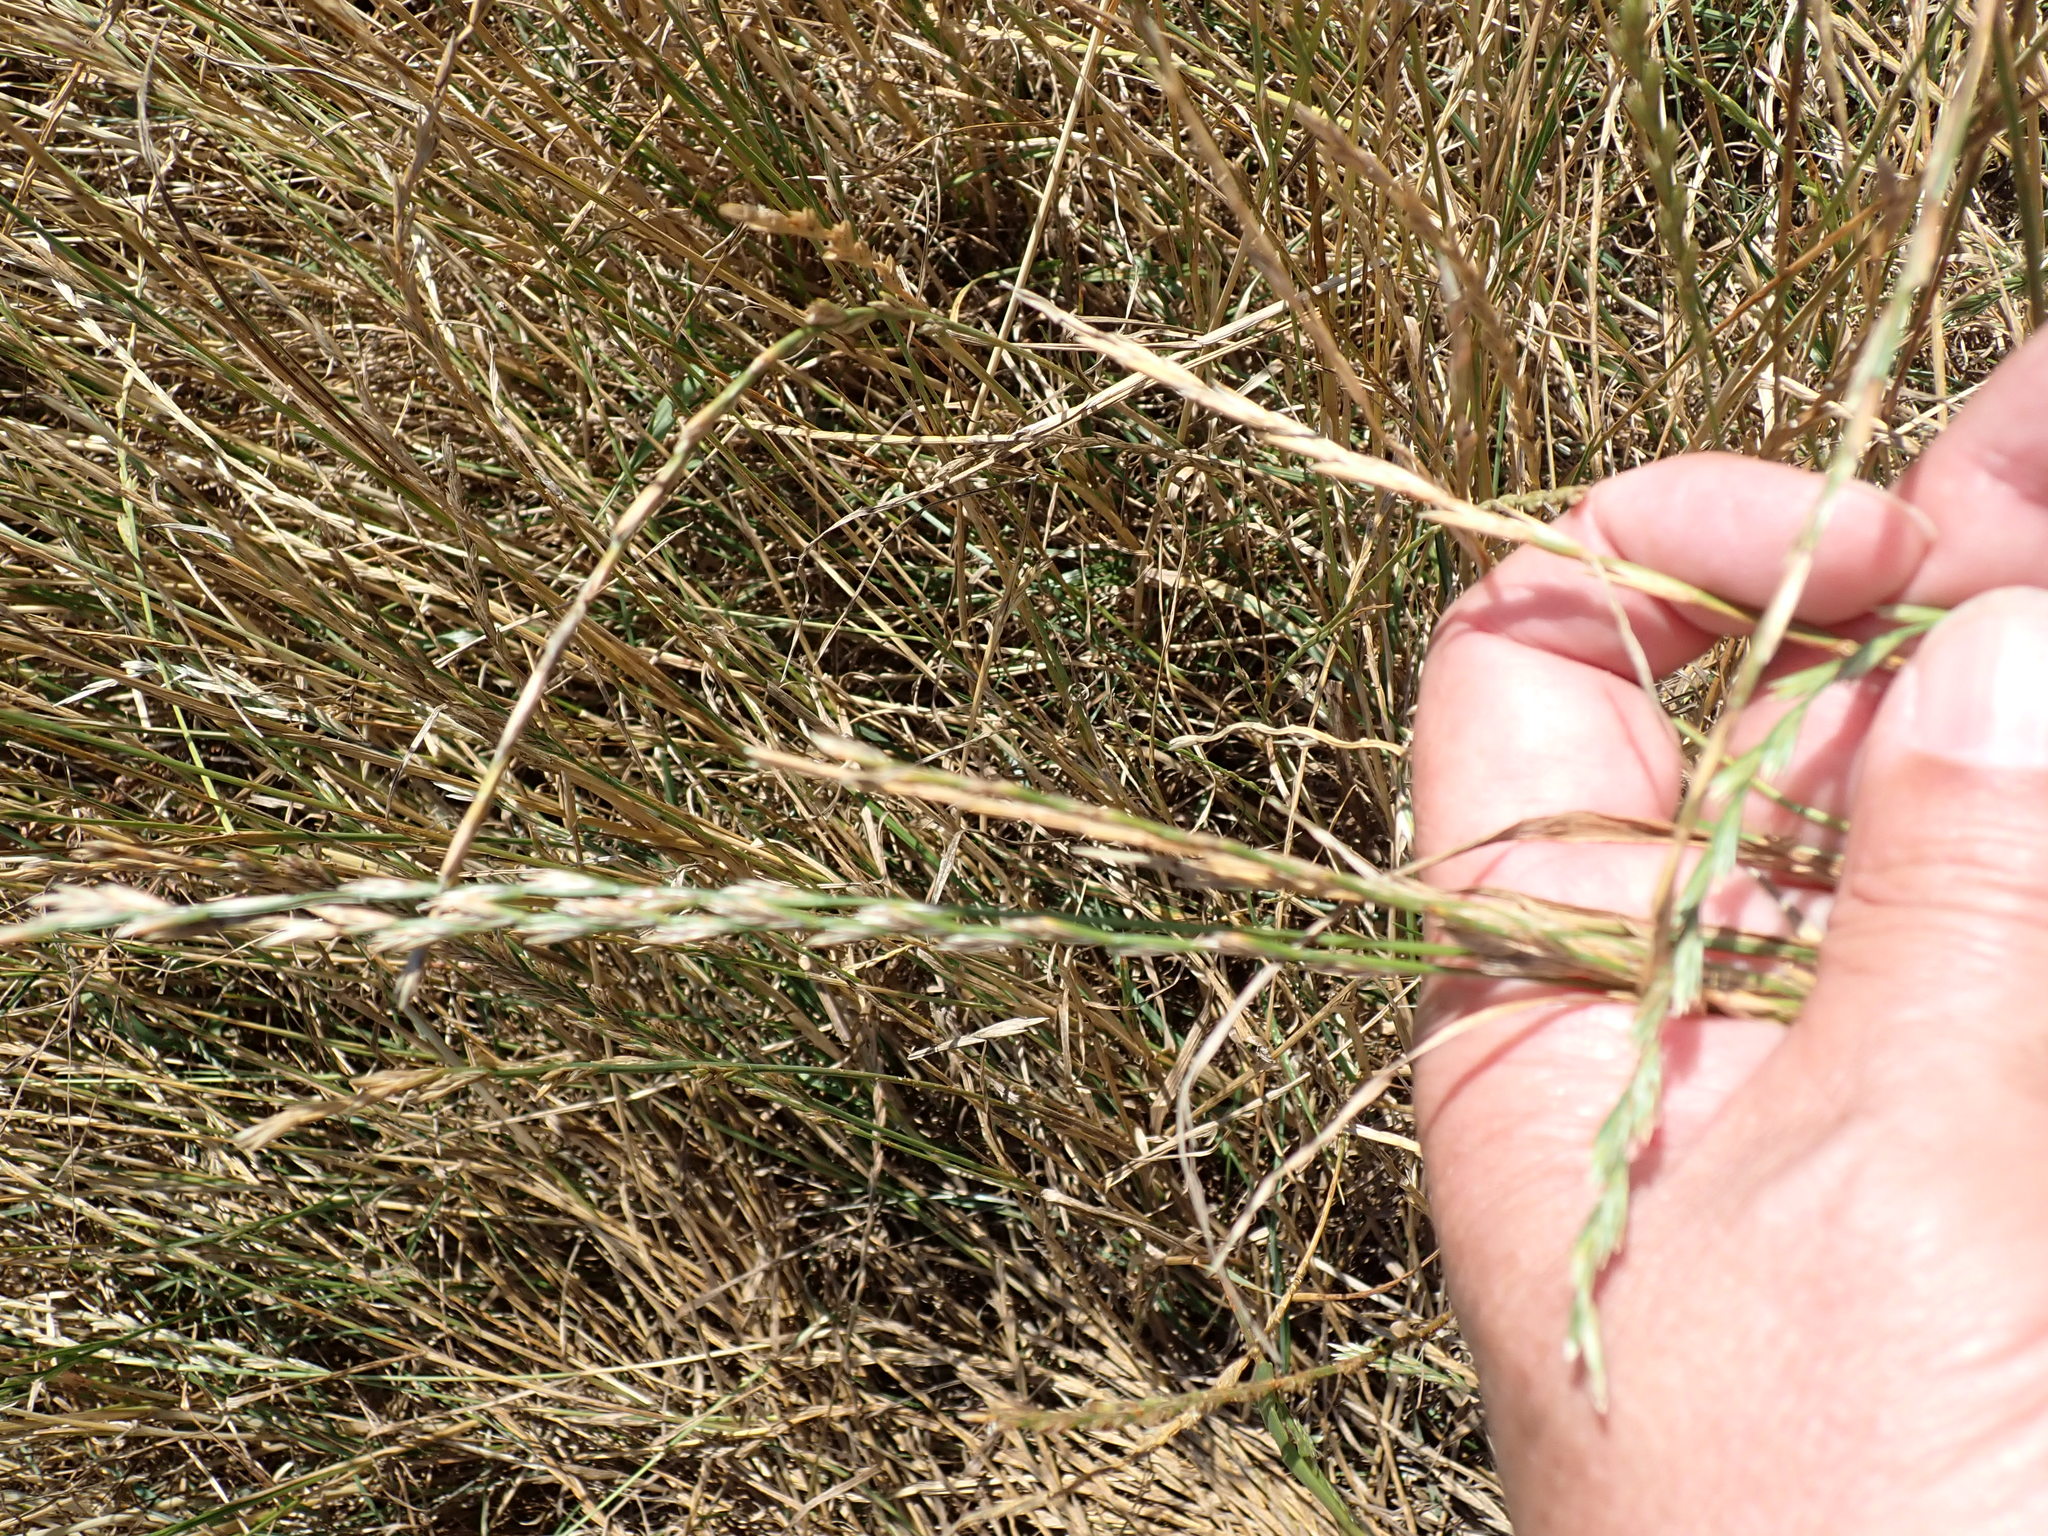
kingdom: Plantae
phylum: Tracheophyta
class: Liliopsida
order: Poales
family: Poaceae
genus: Lolium
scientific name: Lolium perenne
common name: Perennial ryegrass
